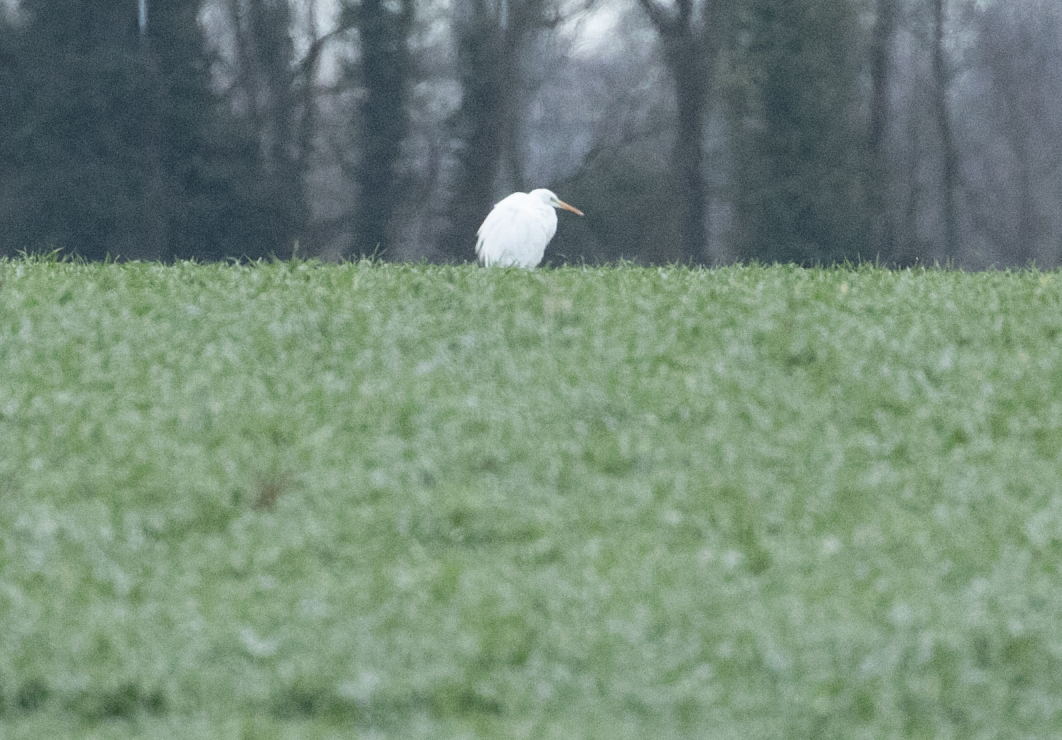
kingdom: Animalia
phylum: Chordata
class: Aves
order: Pelecaniformes
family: Ardeidae
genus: Ardea
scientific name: Ardea alba
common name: Great egret
